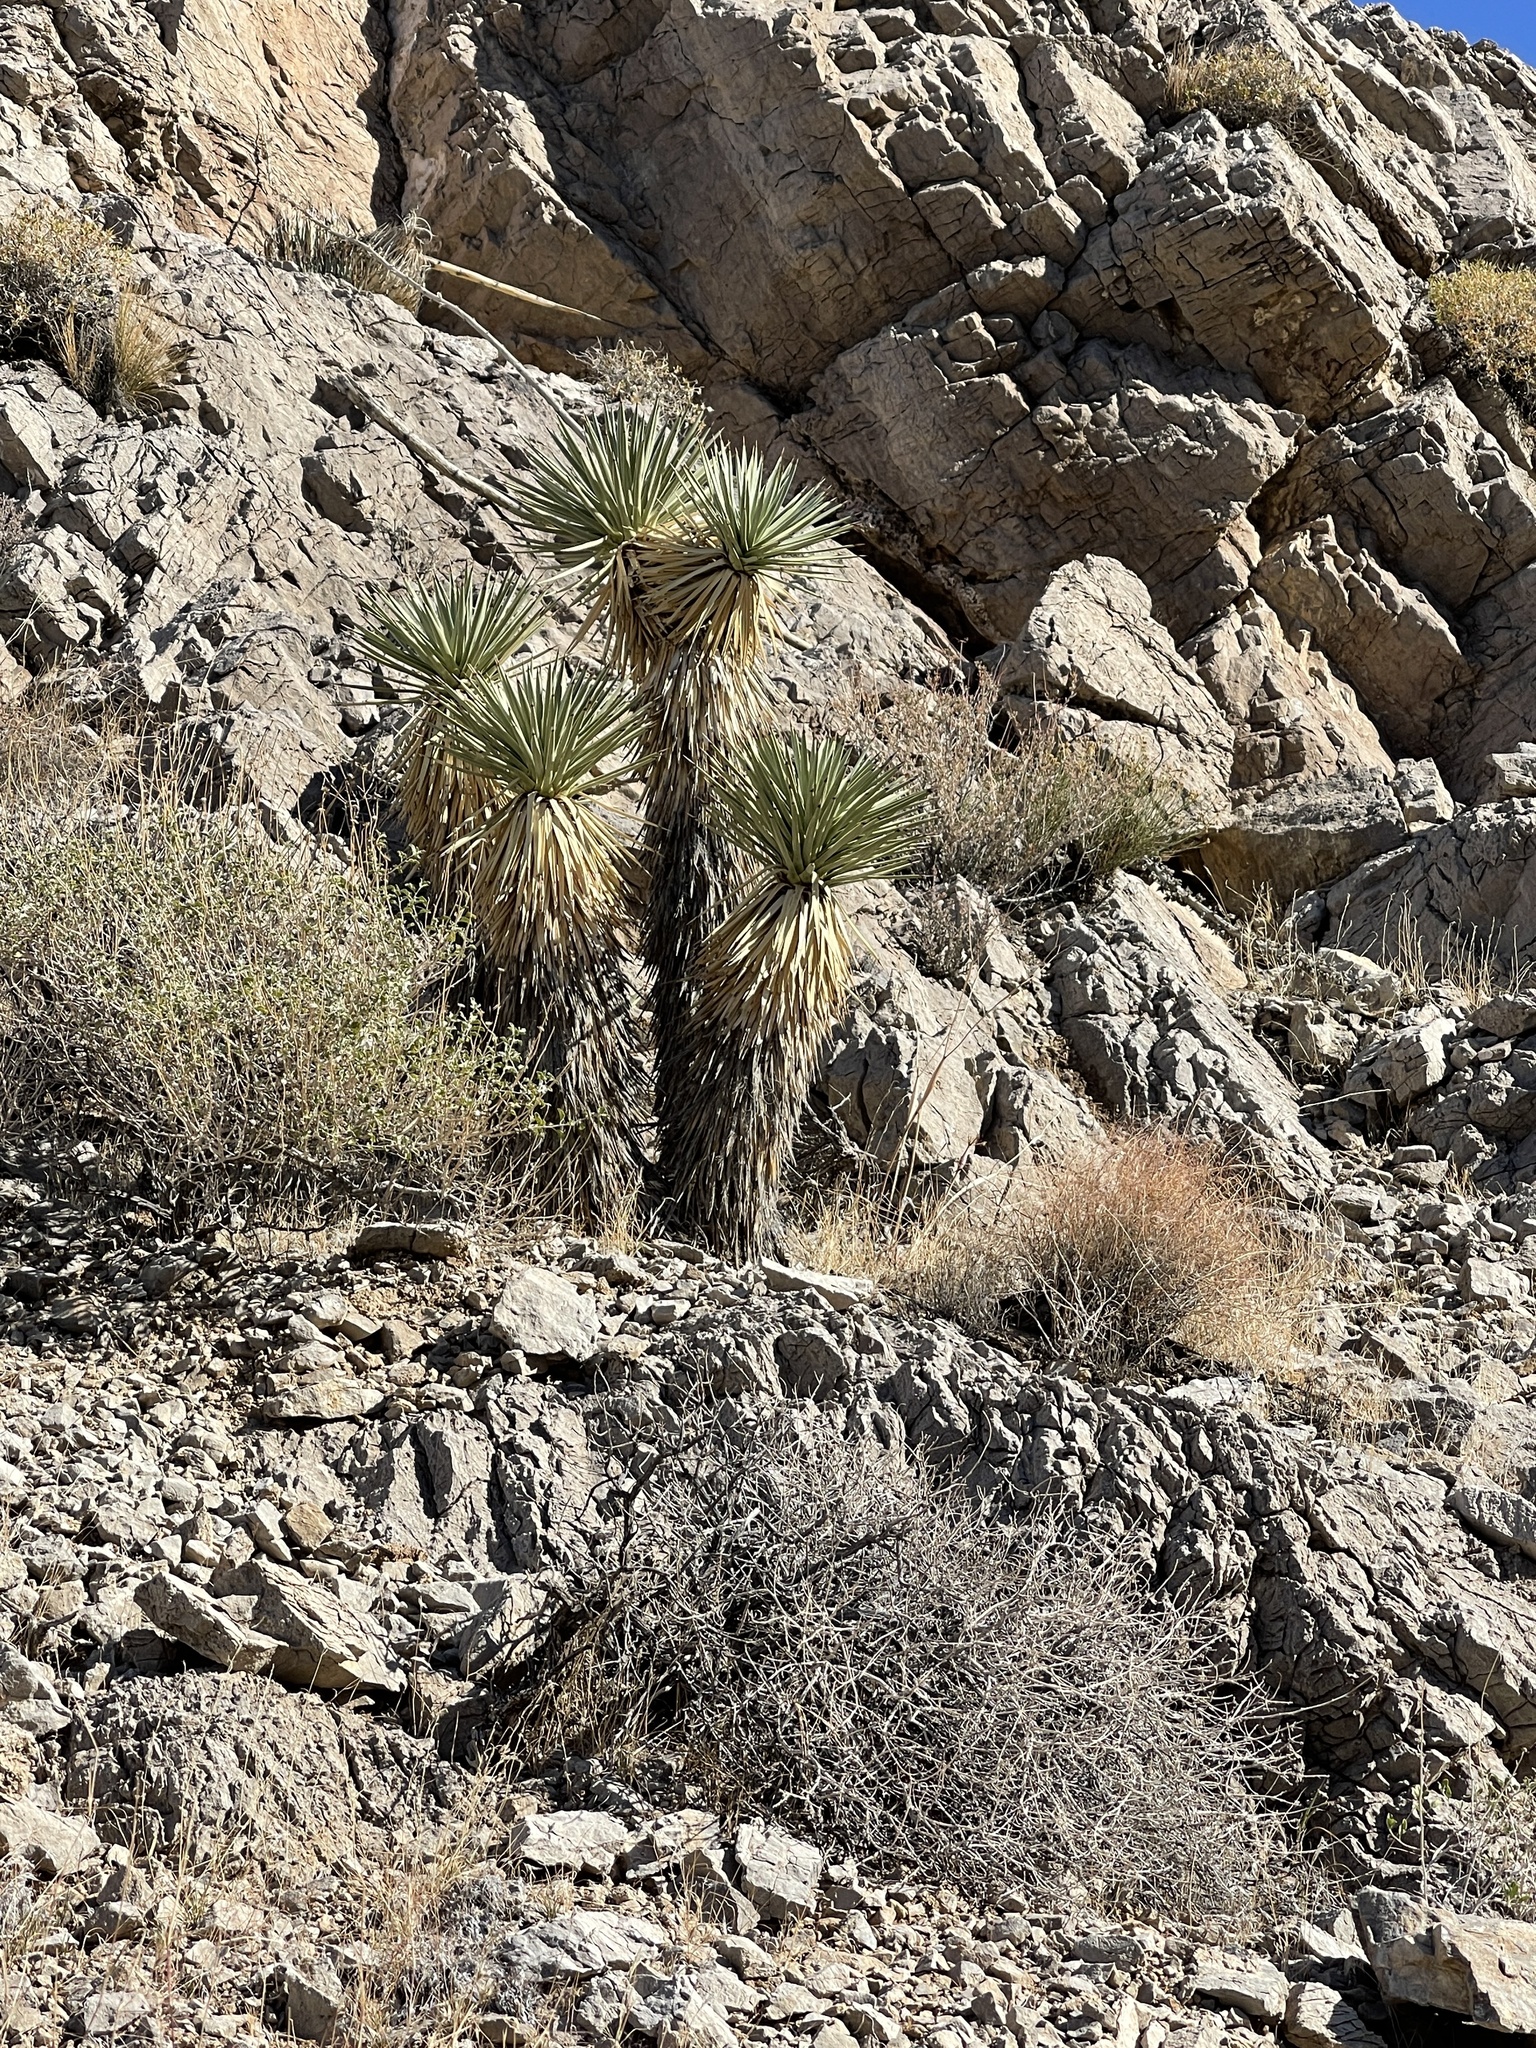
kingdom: Plantae
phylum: Tracheophyta
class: Liliopsida
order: Asparagales
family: Asparagaceae
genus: Yucca
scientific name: Yucca brevifolia
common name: Joshua tree
